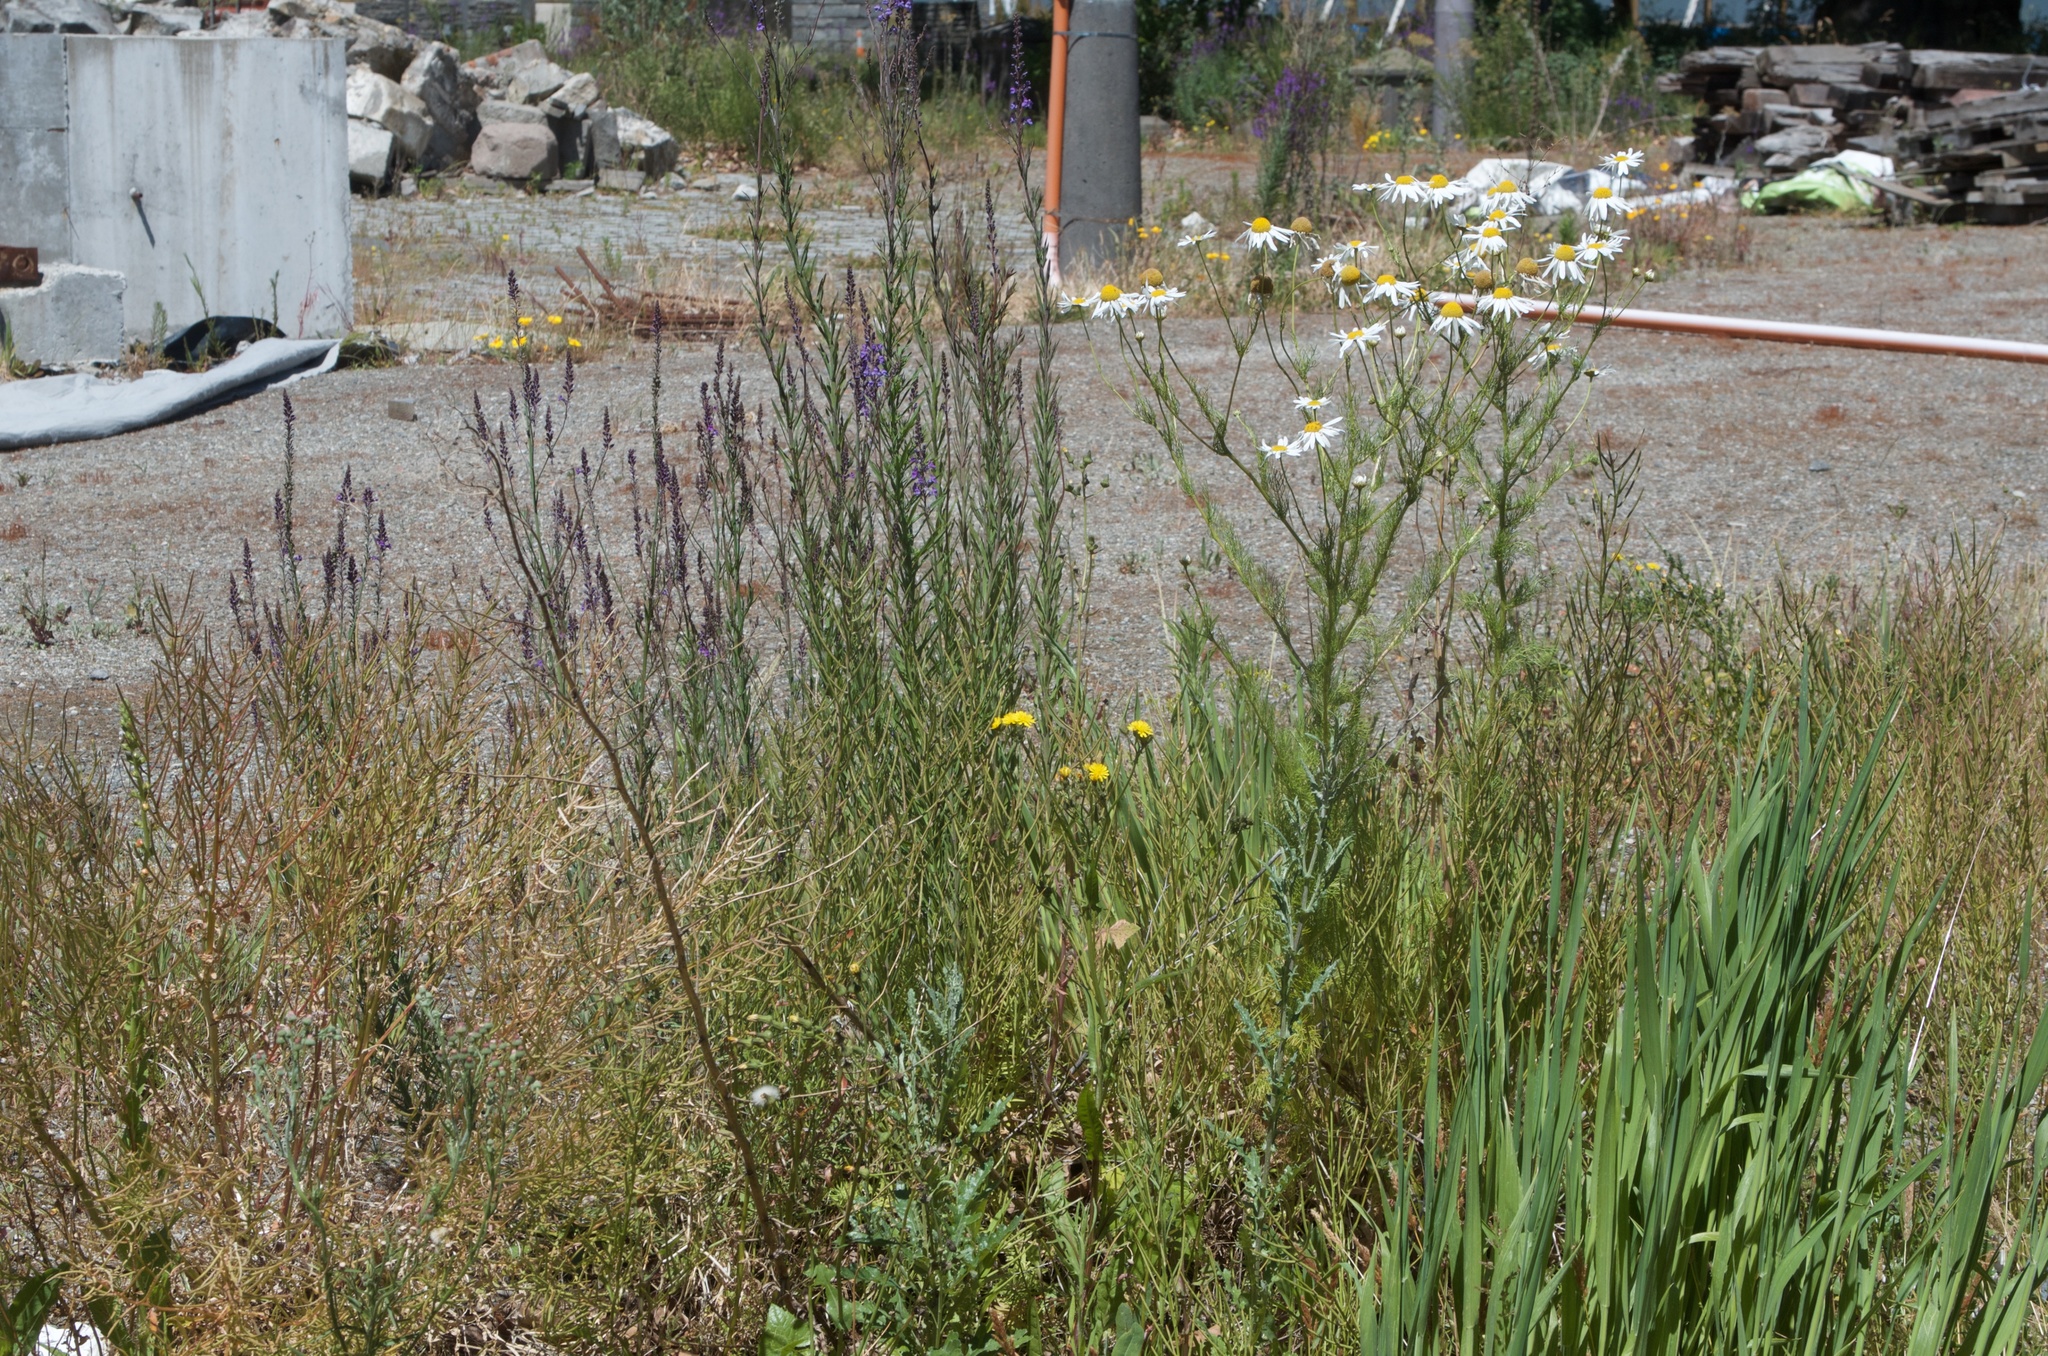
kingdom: Plantae
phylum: Tracheophyta
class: Magnoliopsida
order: Asterales
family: Asteraceae
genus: Senecio
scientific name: Senecio glomeratus
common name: Cutleaf burnweed
